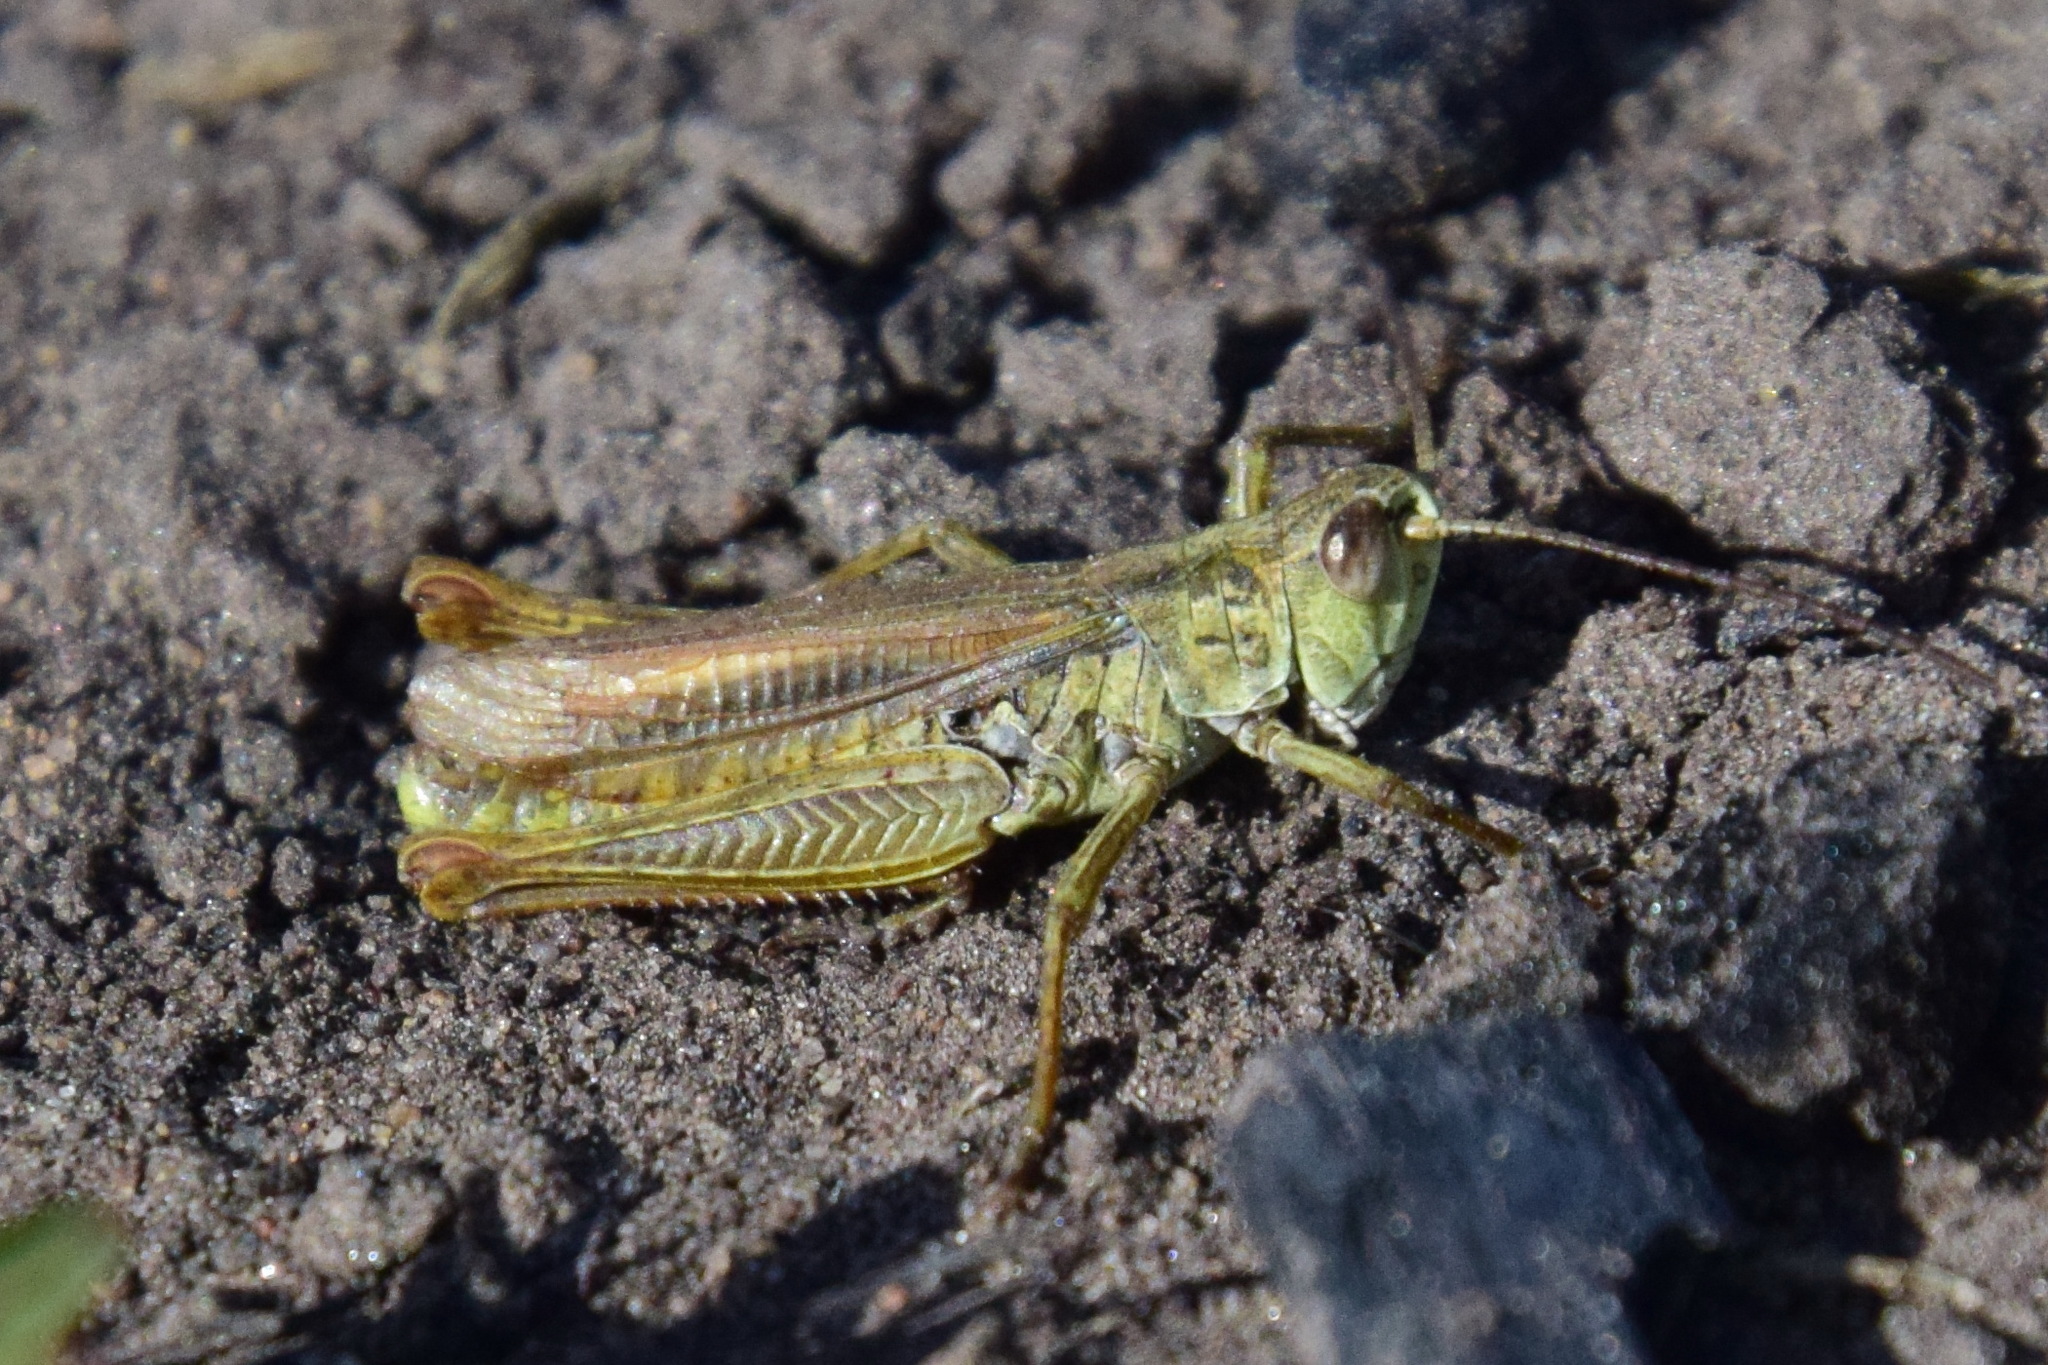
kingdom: Animalia
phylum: Arthropoda
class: Insecta
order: Orthoptera
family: Acrididae
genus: Chorthippus
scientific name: Chorthippus apricarius
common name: Upland field grasshopper
